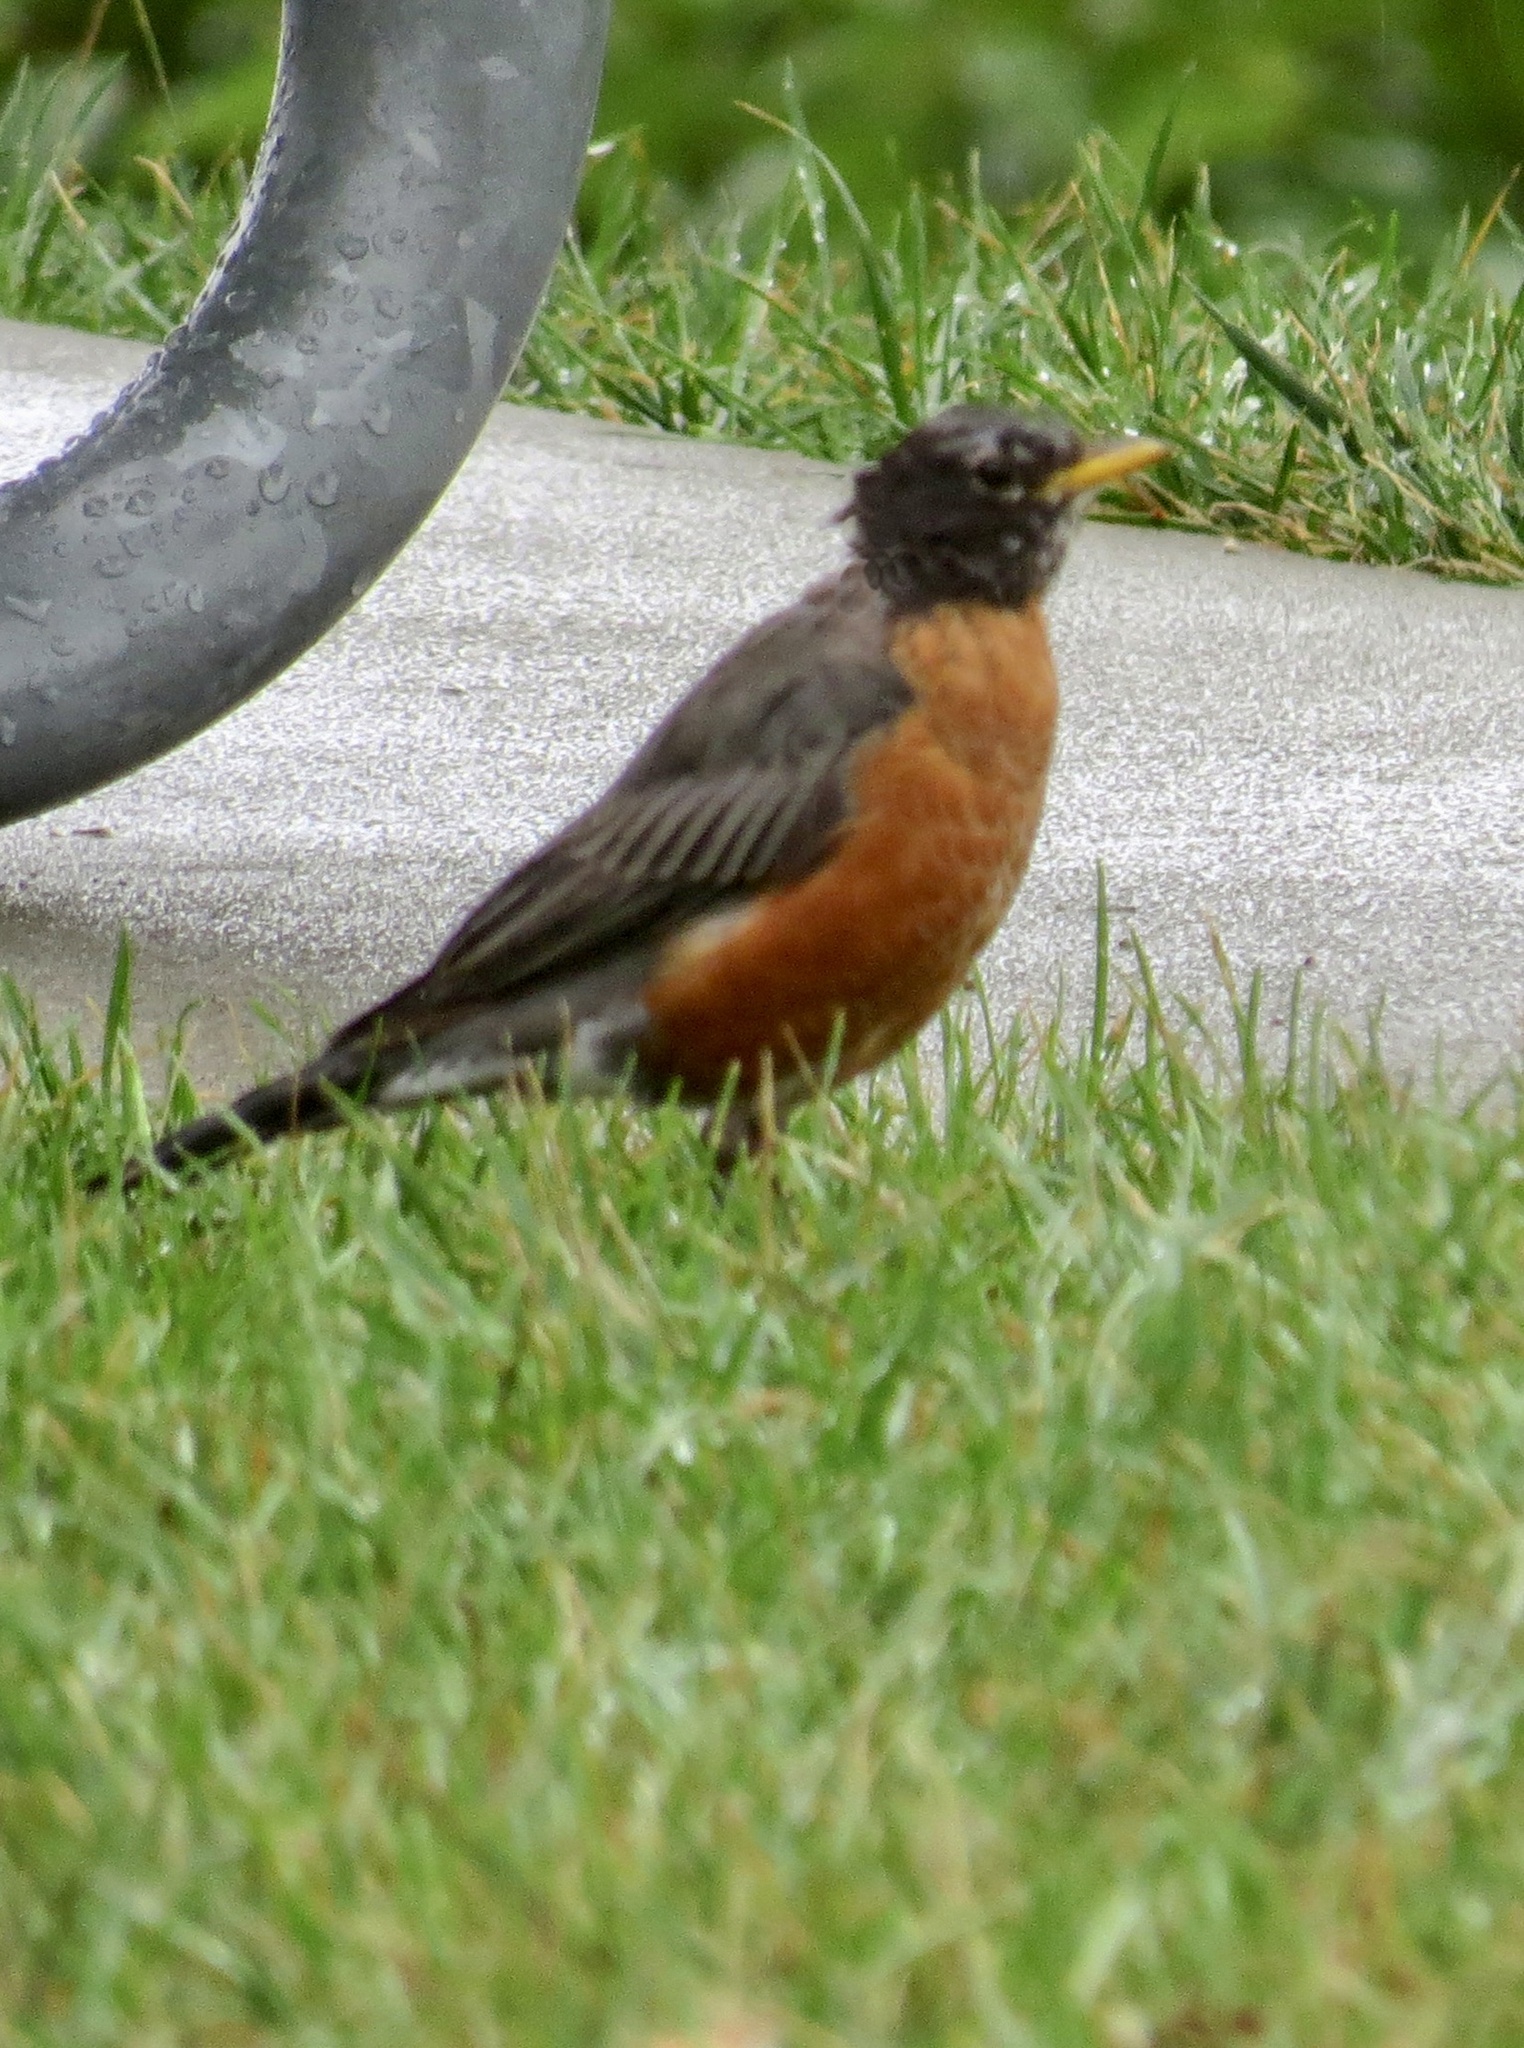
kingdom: Animalia
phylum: Chordata
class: Aves
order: Passeriformes
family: Turdidae
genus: Turdus
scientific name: Turdus migratorius
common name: American robin
